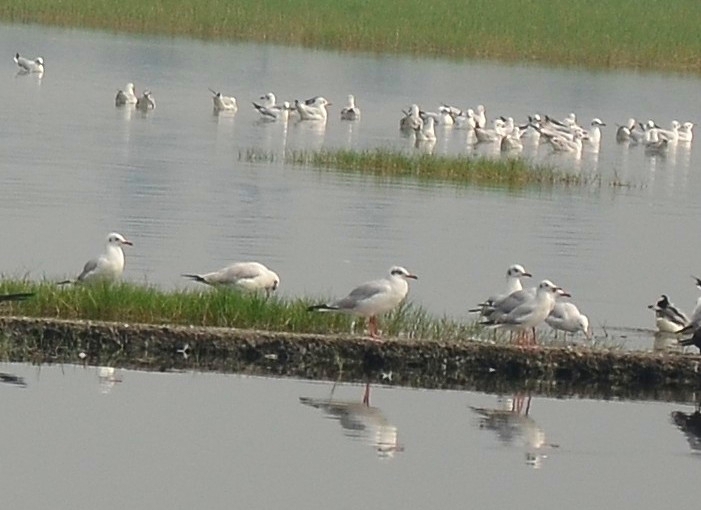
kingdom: Animalia
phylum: Chordata
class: Aves
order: Charadriiformes
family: Laridae
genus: Chroicocephalus
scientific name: Chroicocephalus brunnicephalus
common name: Brown-headed gull
